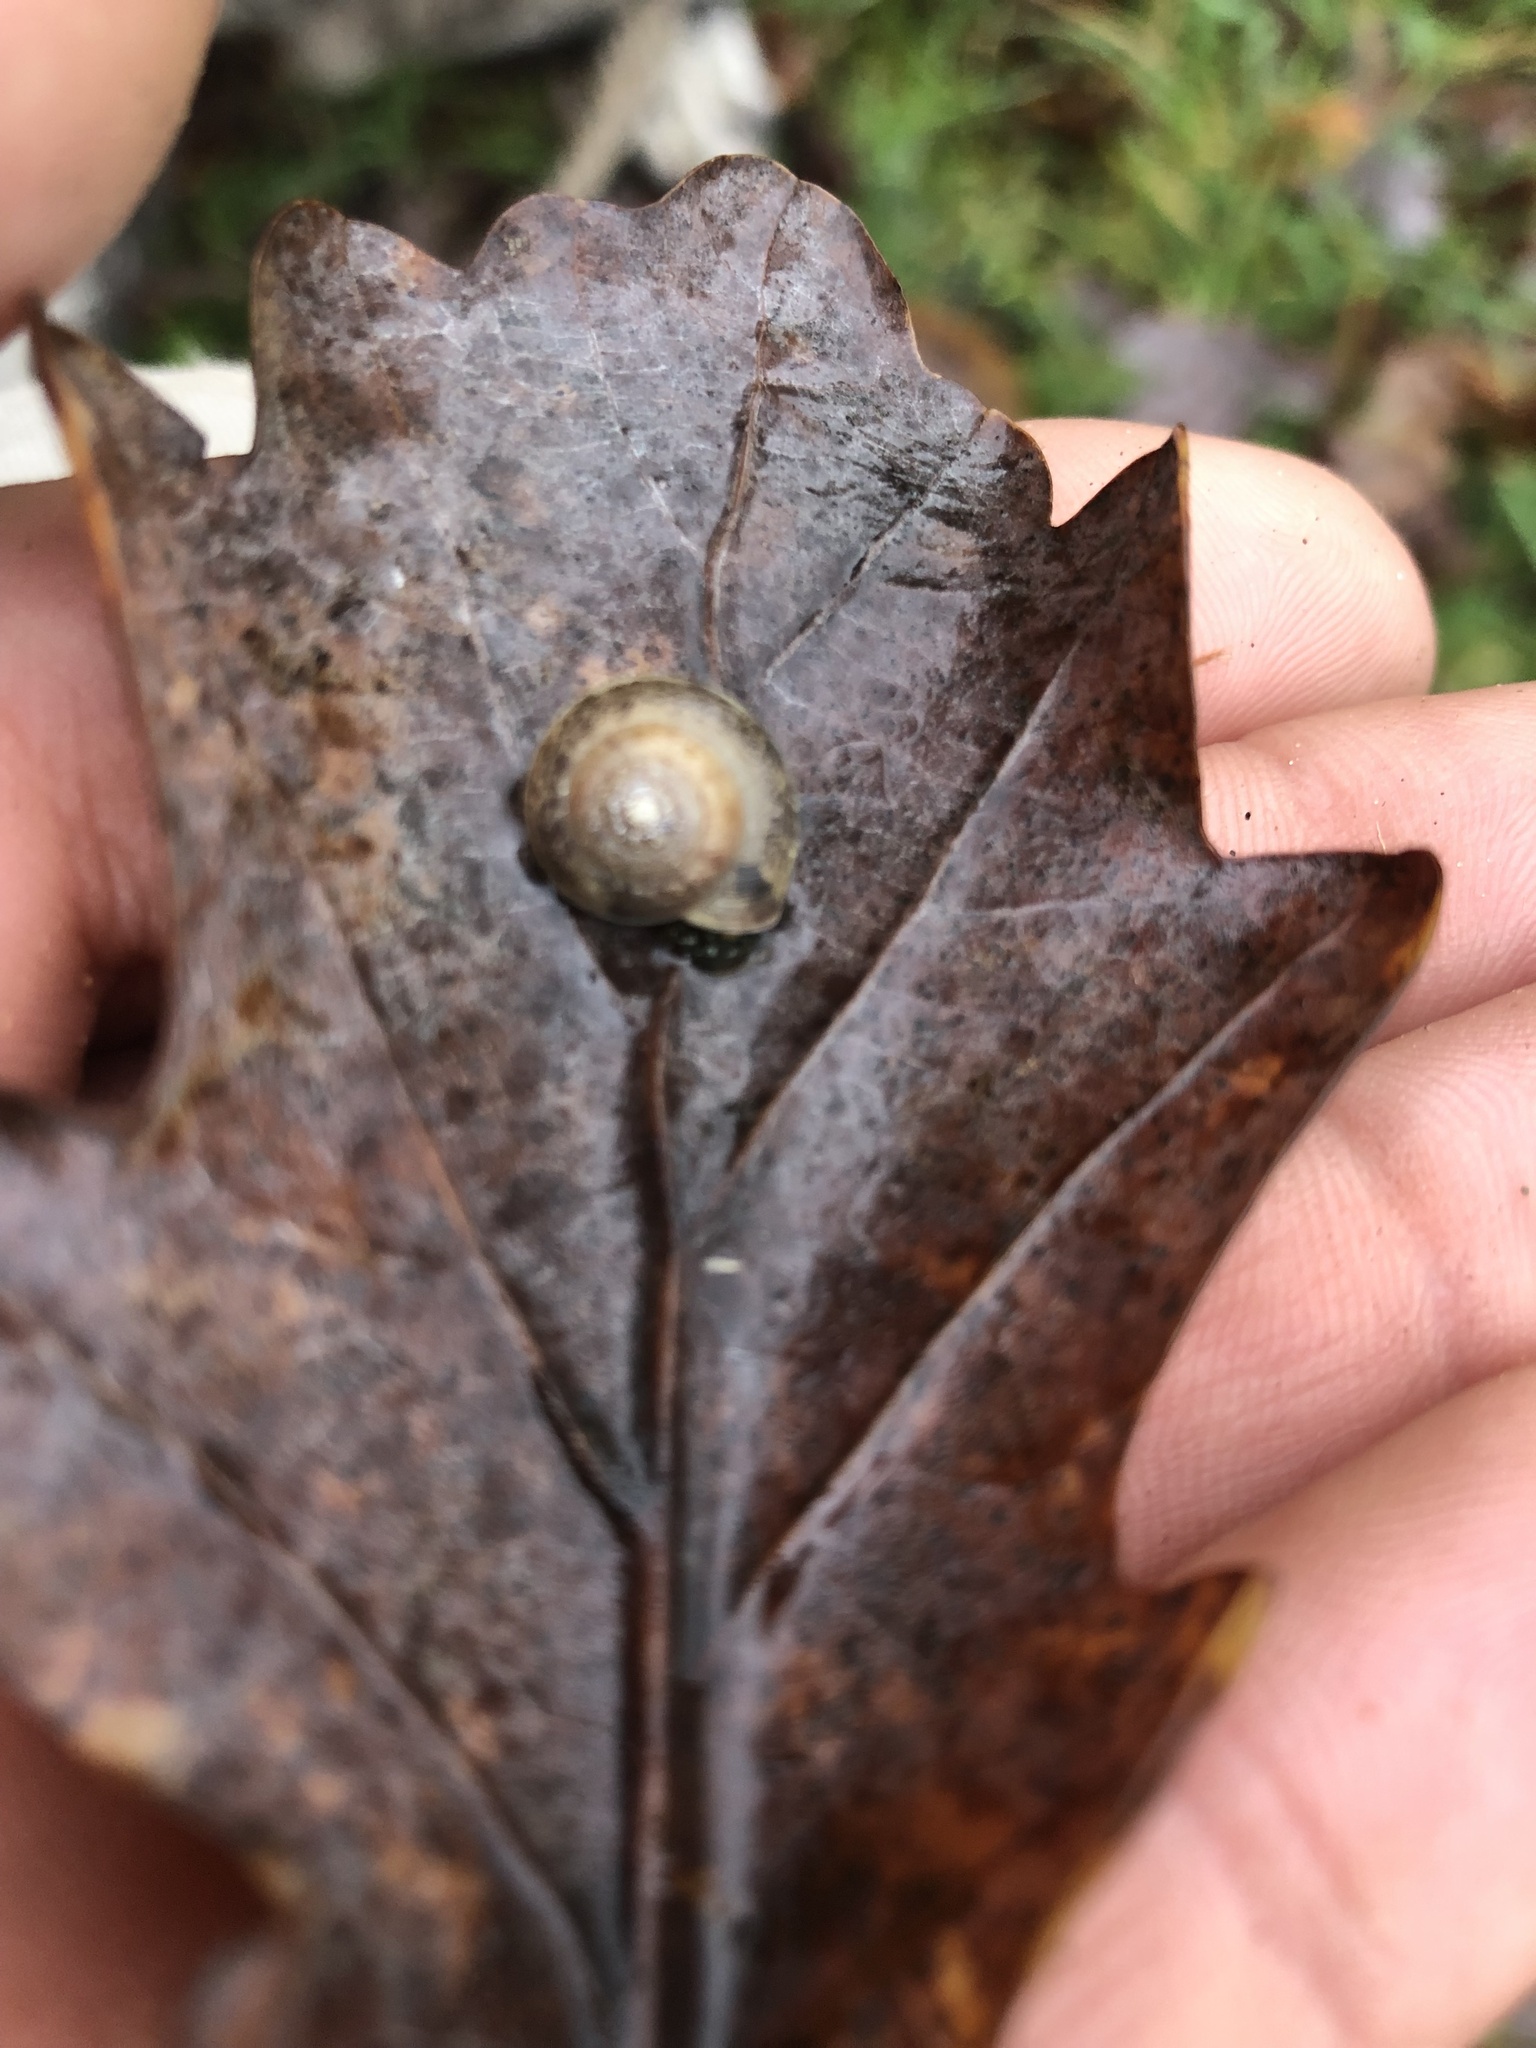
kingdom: Animalia
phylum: Mollusca
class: Gastropoda
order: Stylommatophora
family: Hygromiidae
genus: Hygromia
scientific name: Hygromia cinctella
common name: Girdled snail
